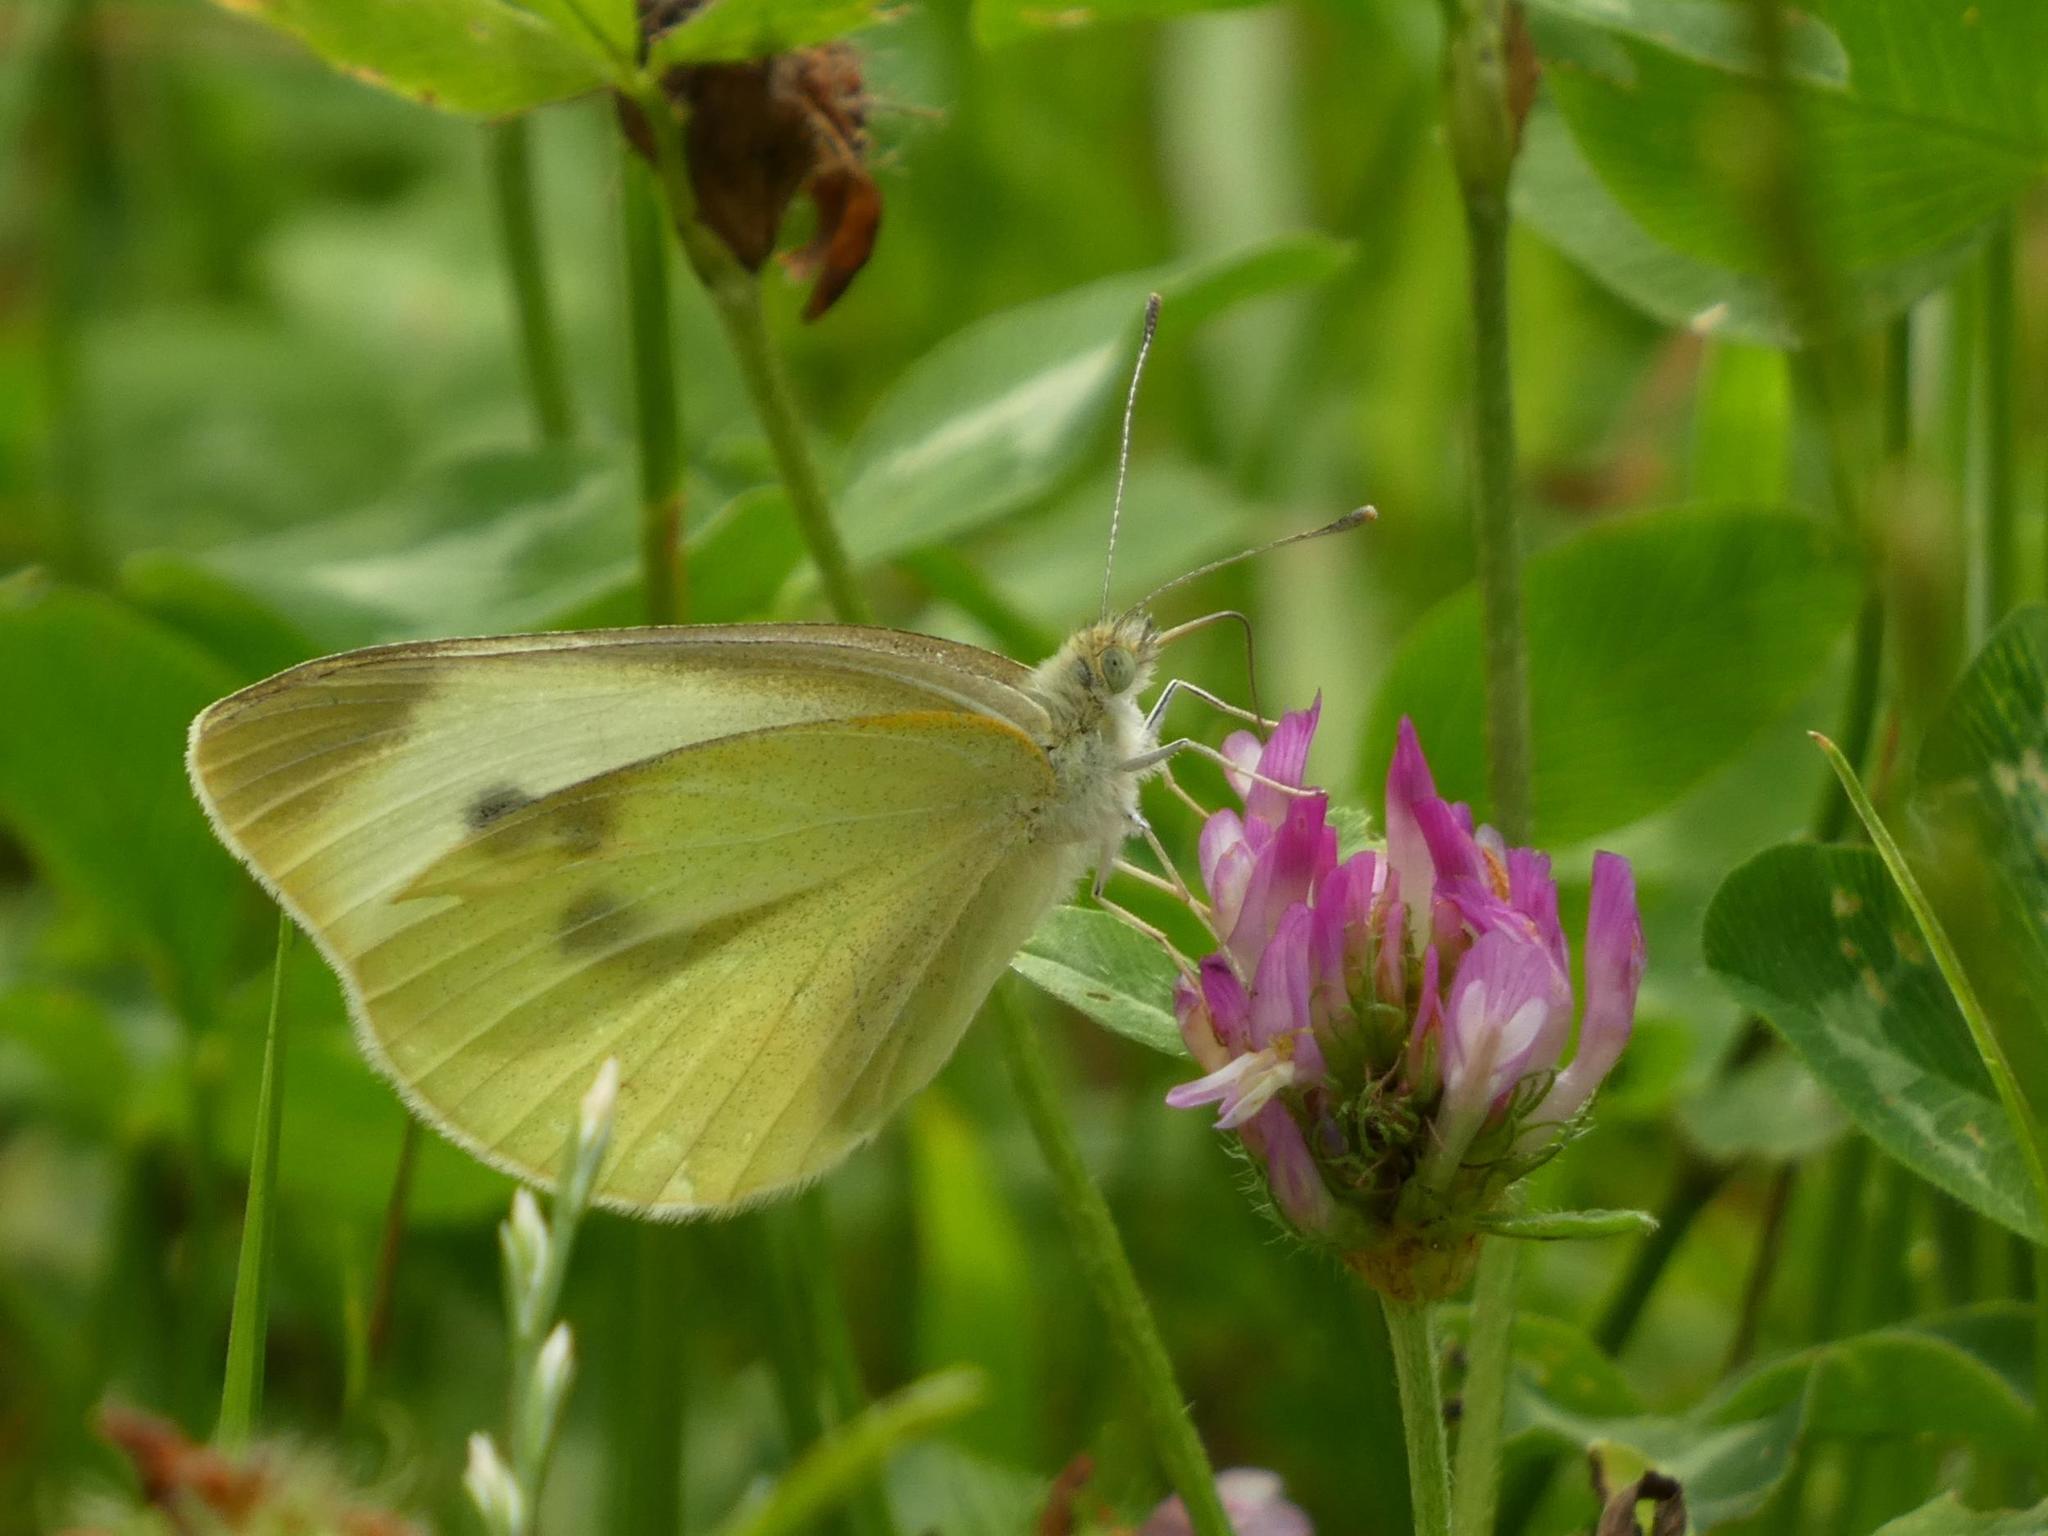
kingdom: Animalia
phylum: Arthropoda
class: Insecta
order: Lepidoptera
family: Pieridae
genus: Pieris
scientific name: Pieris rapae
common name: Small white
